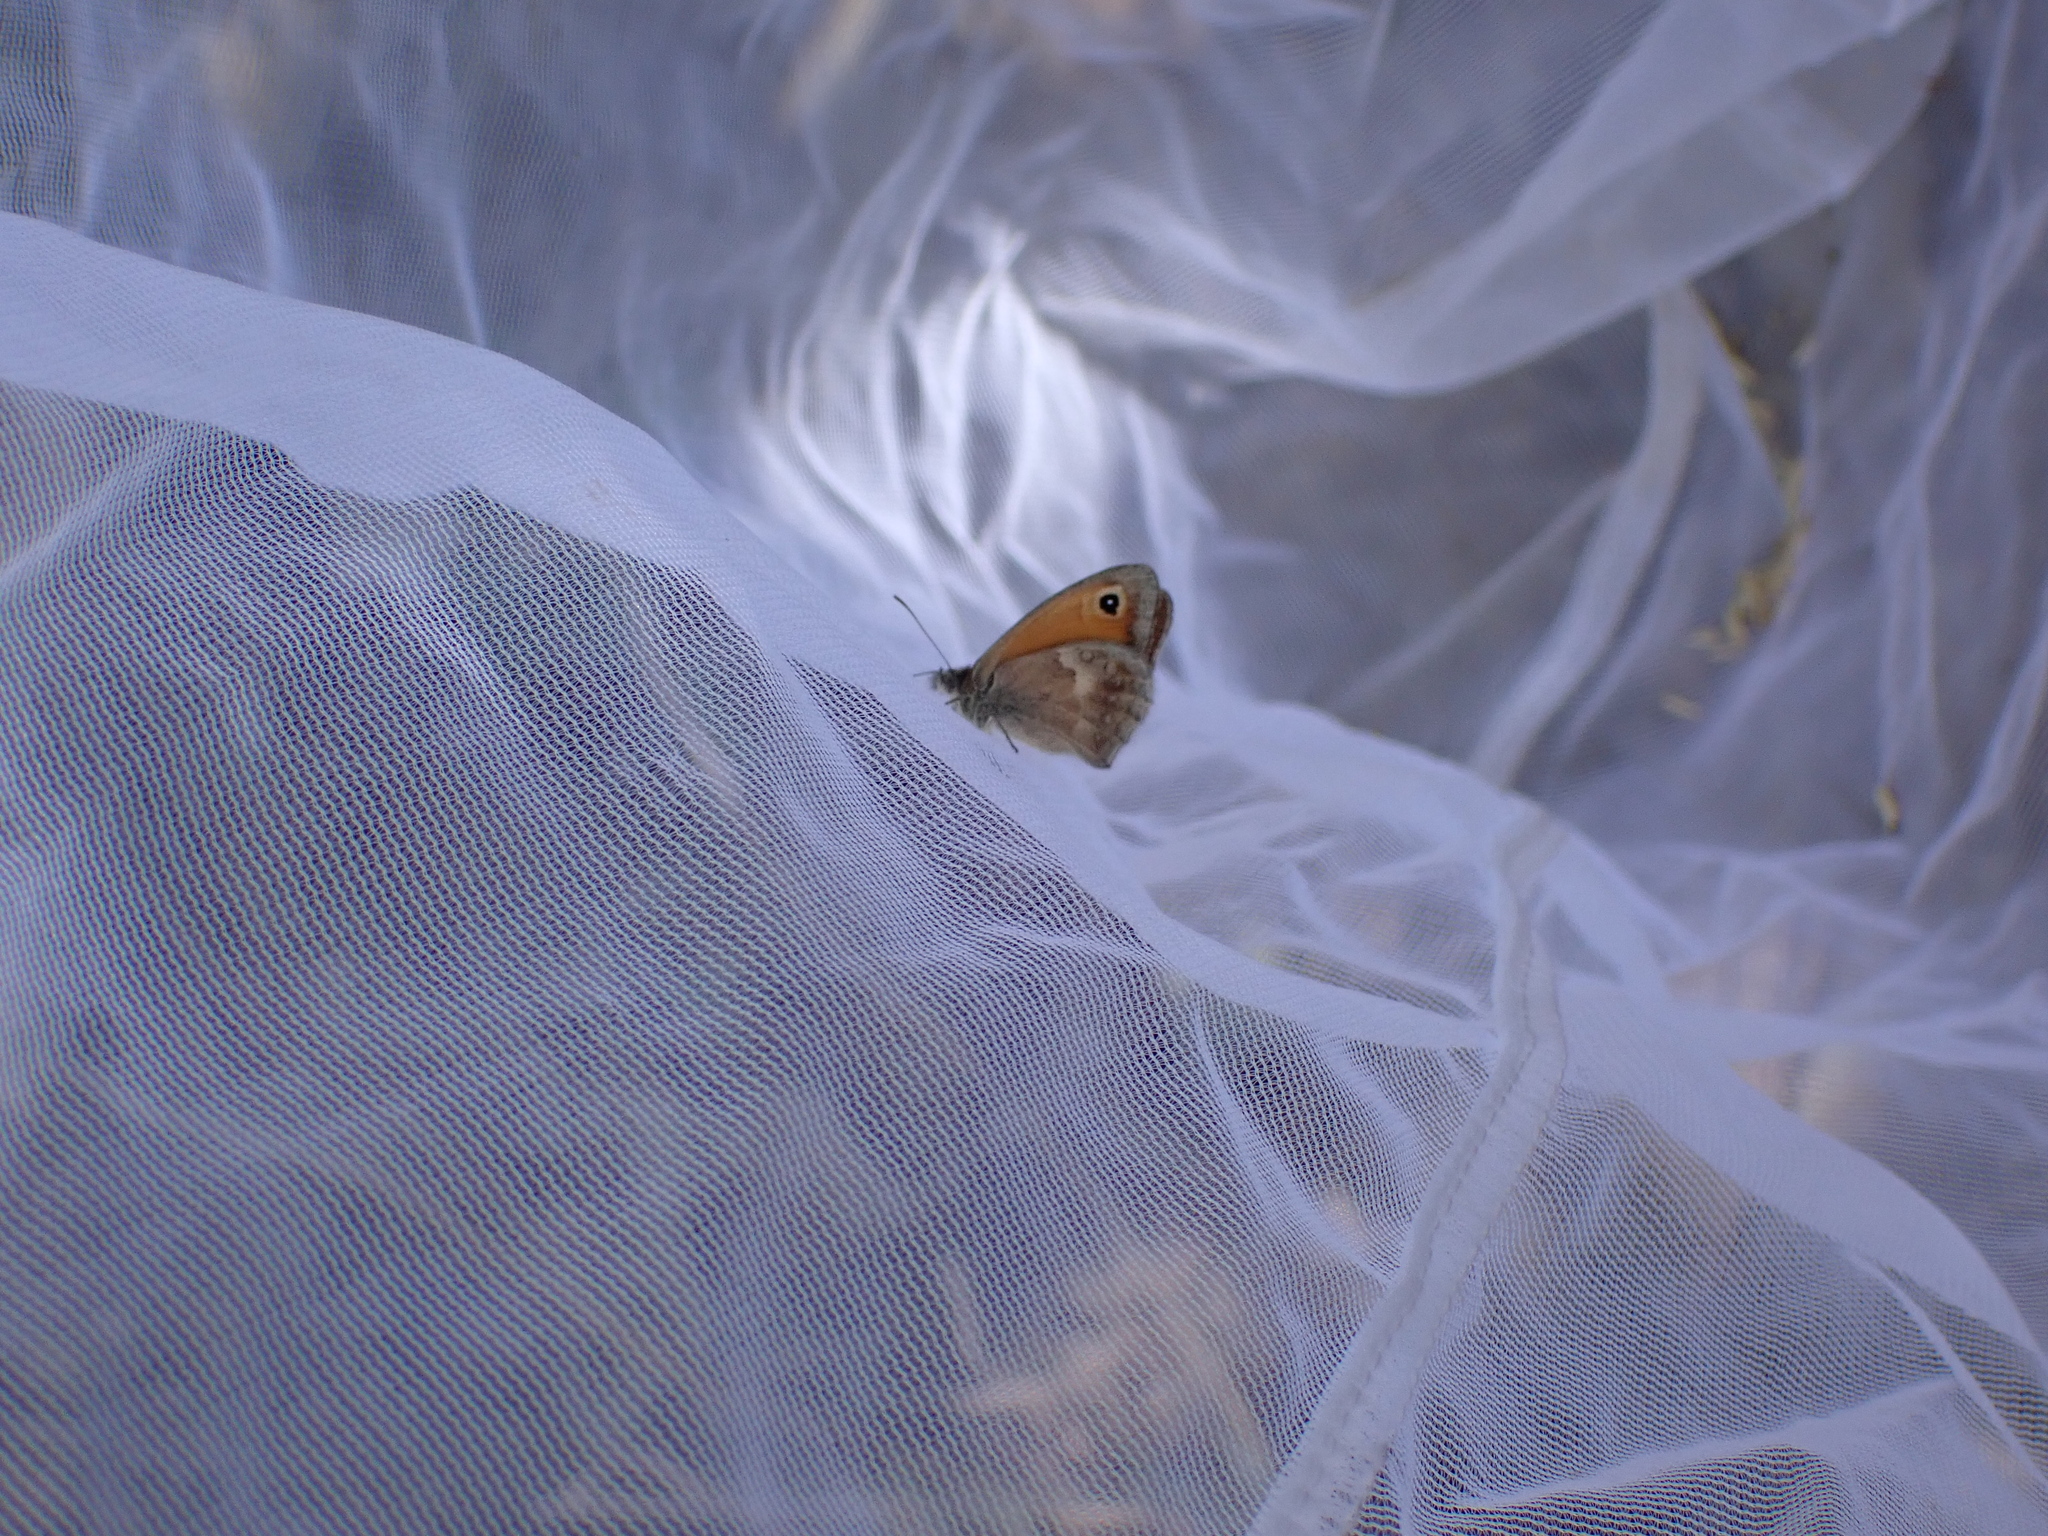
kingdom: Animalia
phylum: Arthropoda
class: Insecta
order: Lepidoptera
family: Nymphalidae
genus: Coenonympha
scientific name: Coenonympha pamphilus
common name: Small heath
